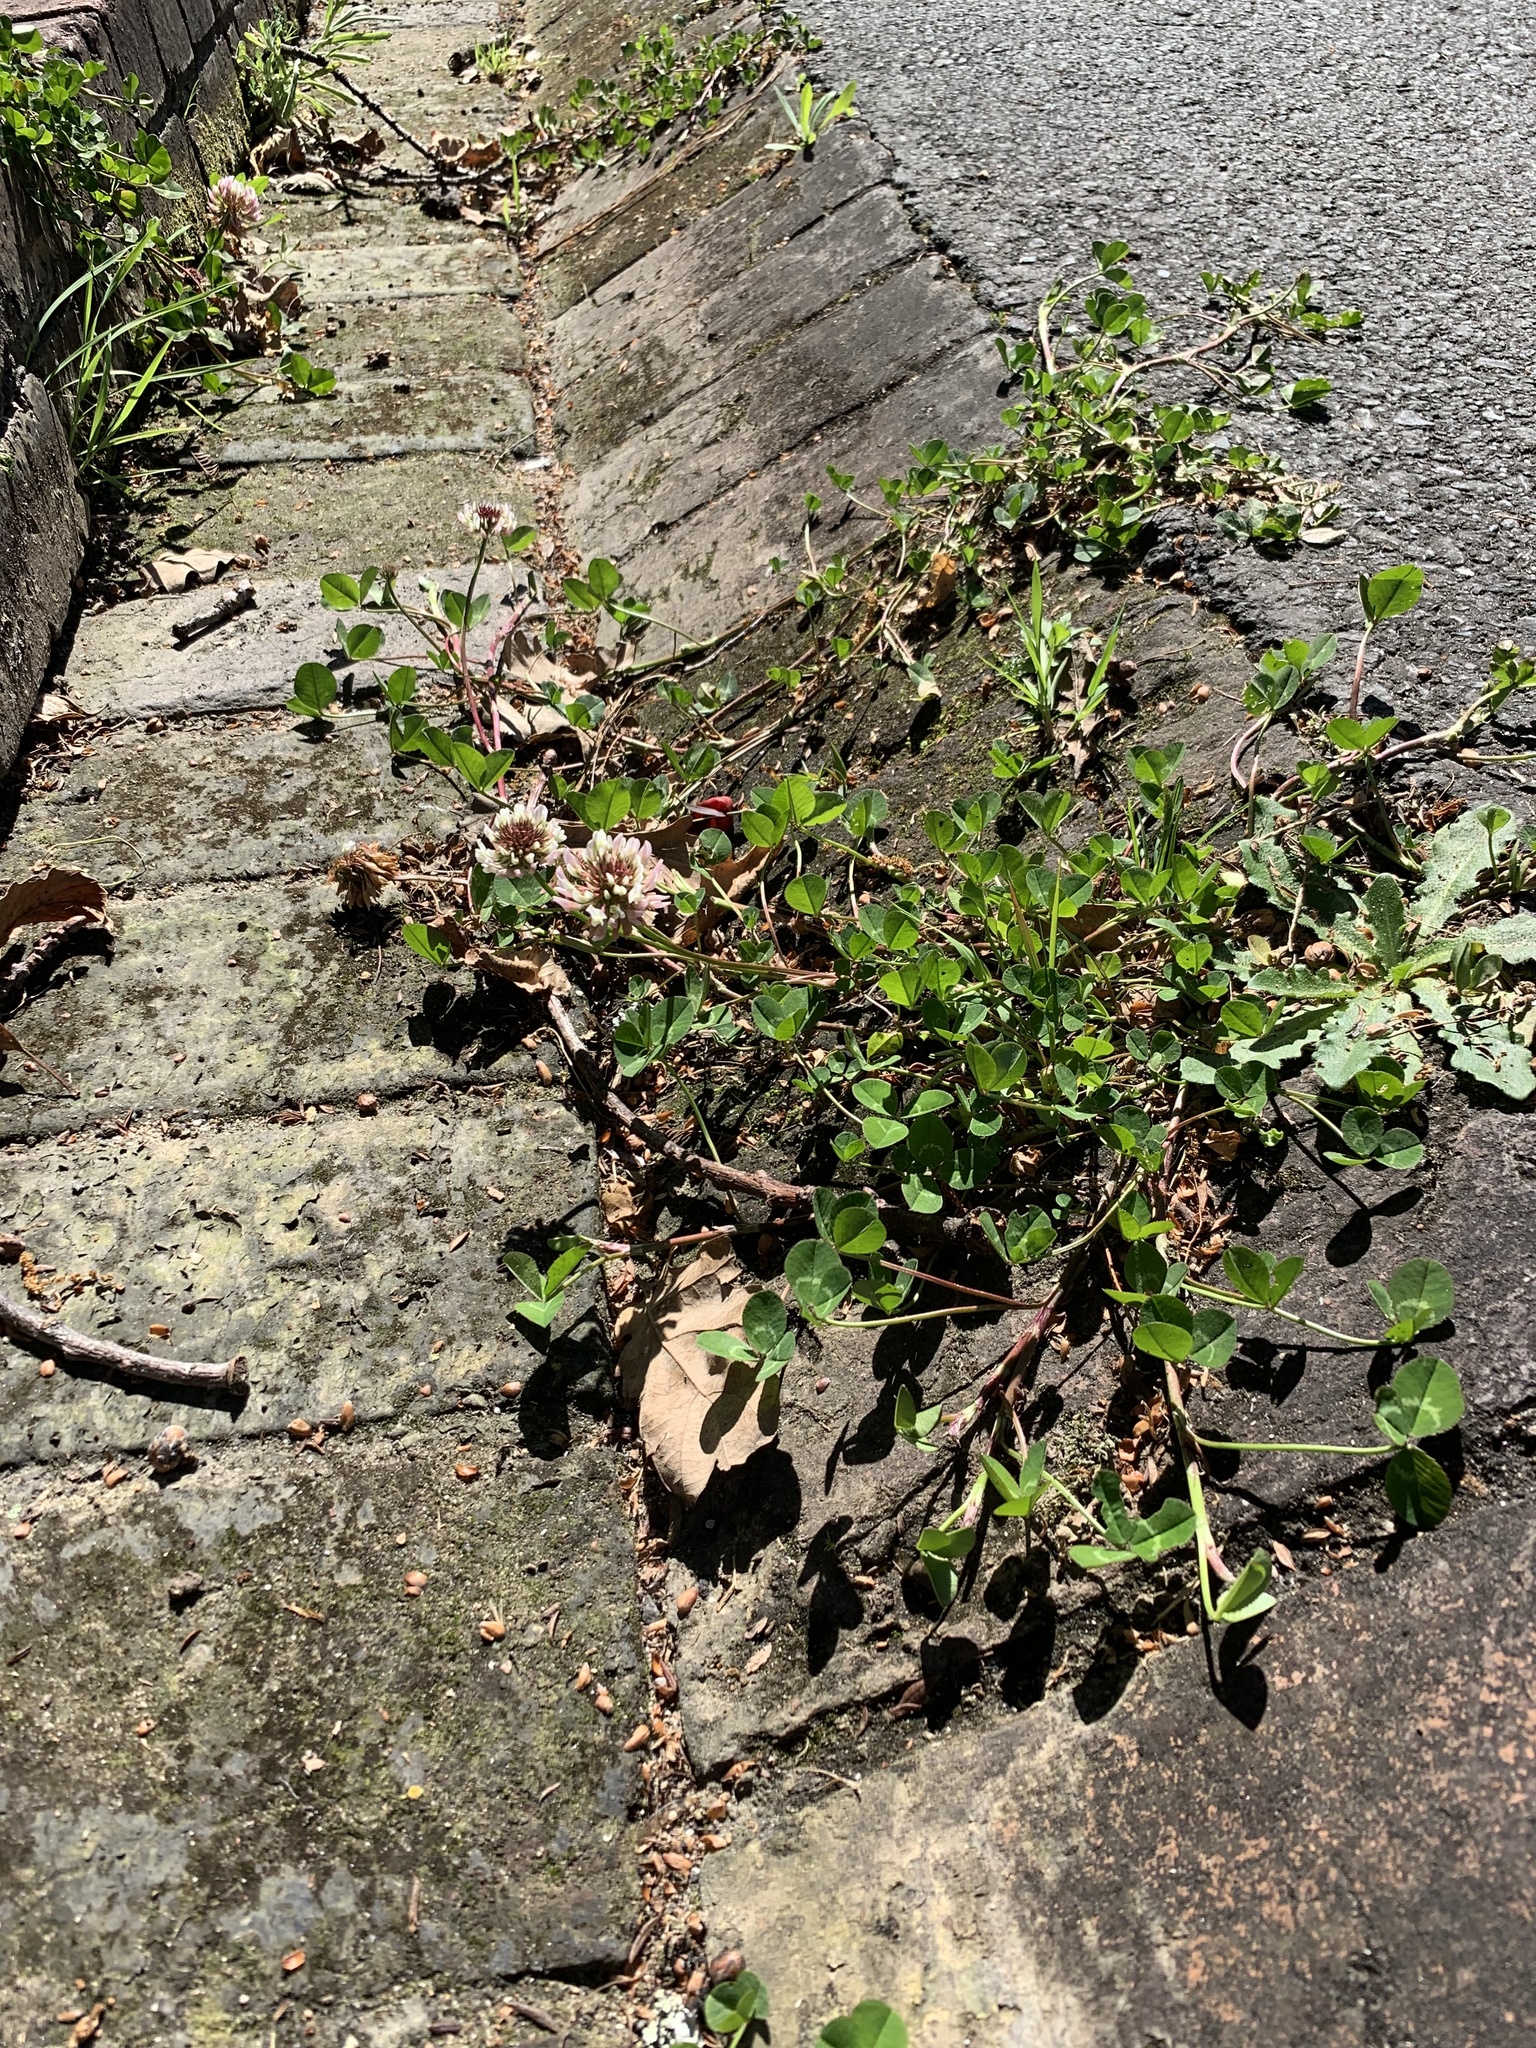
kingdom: Plantae
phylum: Tracheophyta
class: Magnoliopsida
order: Fabales
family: Fabaceae
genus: Trifolium
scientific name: Trifolium repens
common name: White clover
